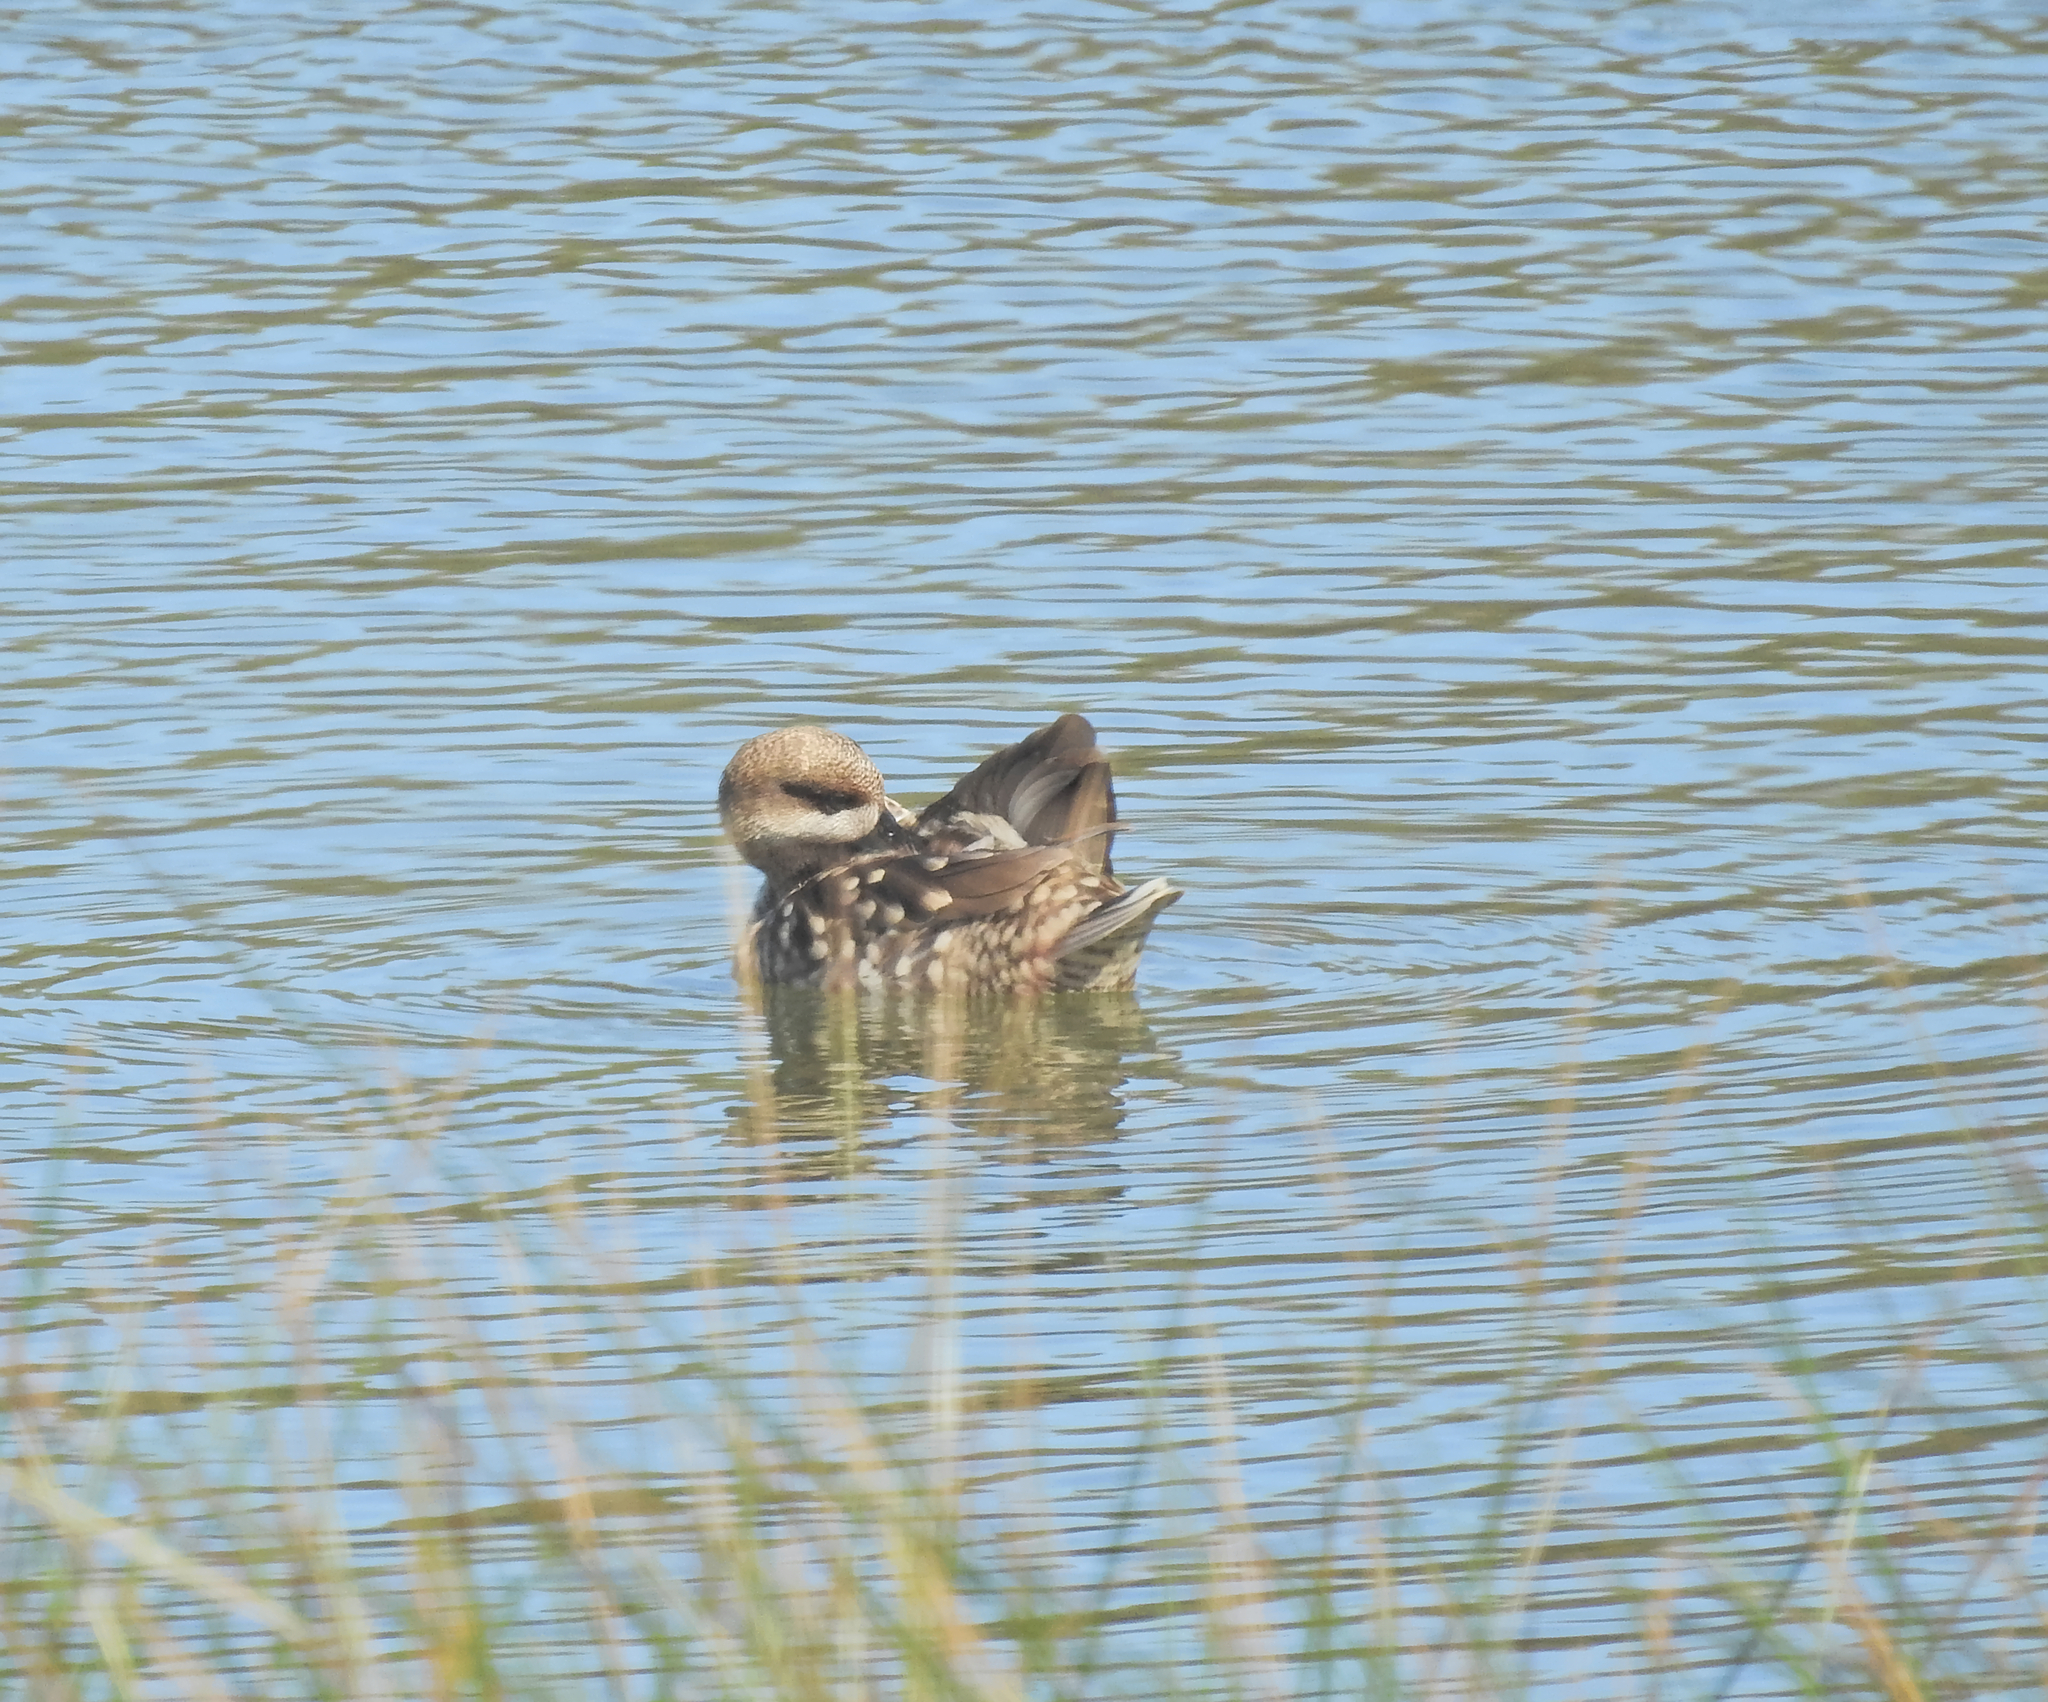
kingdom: Animalia
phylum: Chordata
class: Aves
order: Anseriformes
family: Anatidae
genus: Marmaronetta
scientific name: Marmaronetta angustirostris
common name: Marbled duck
